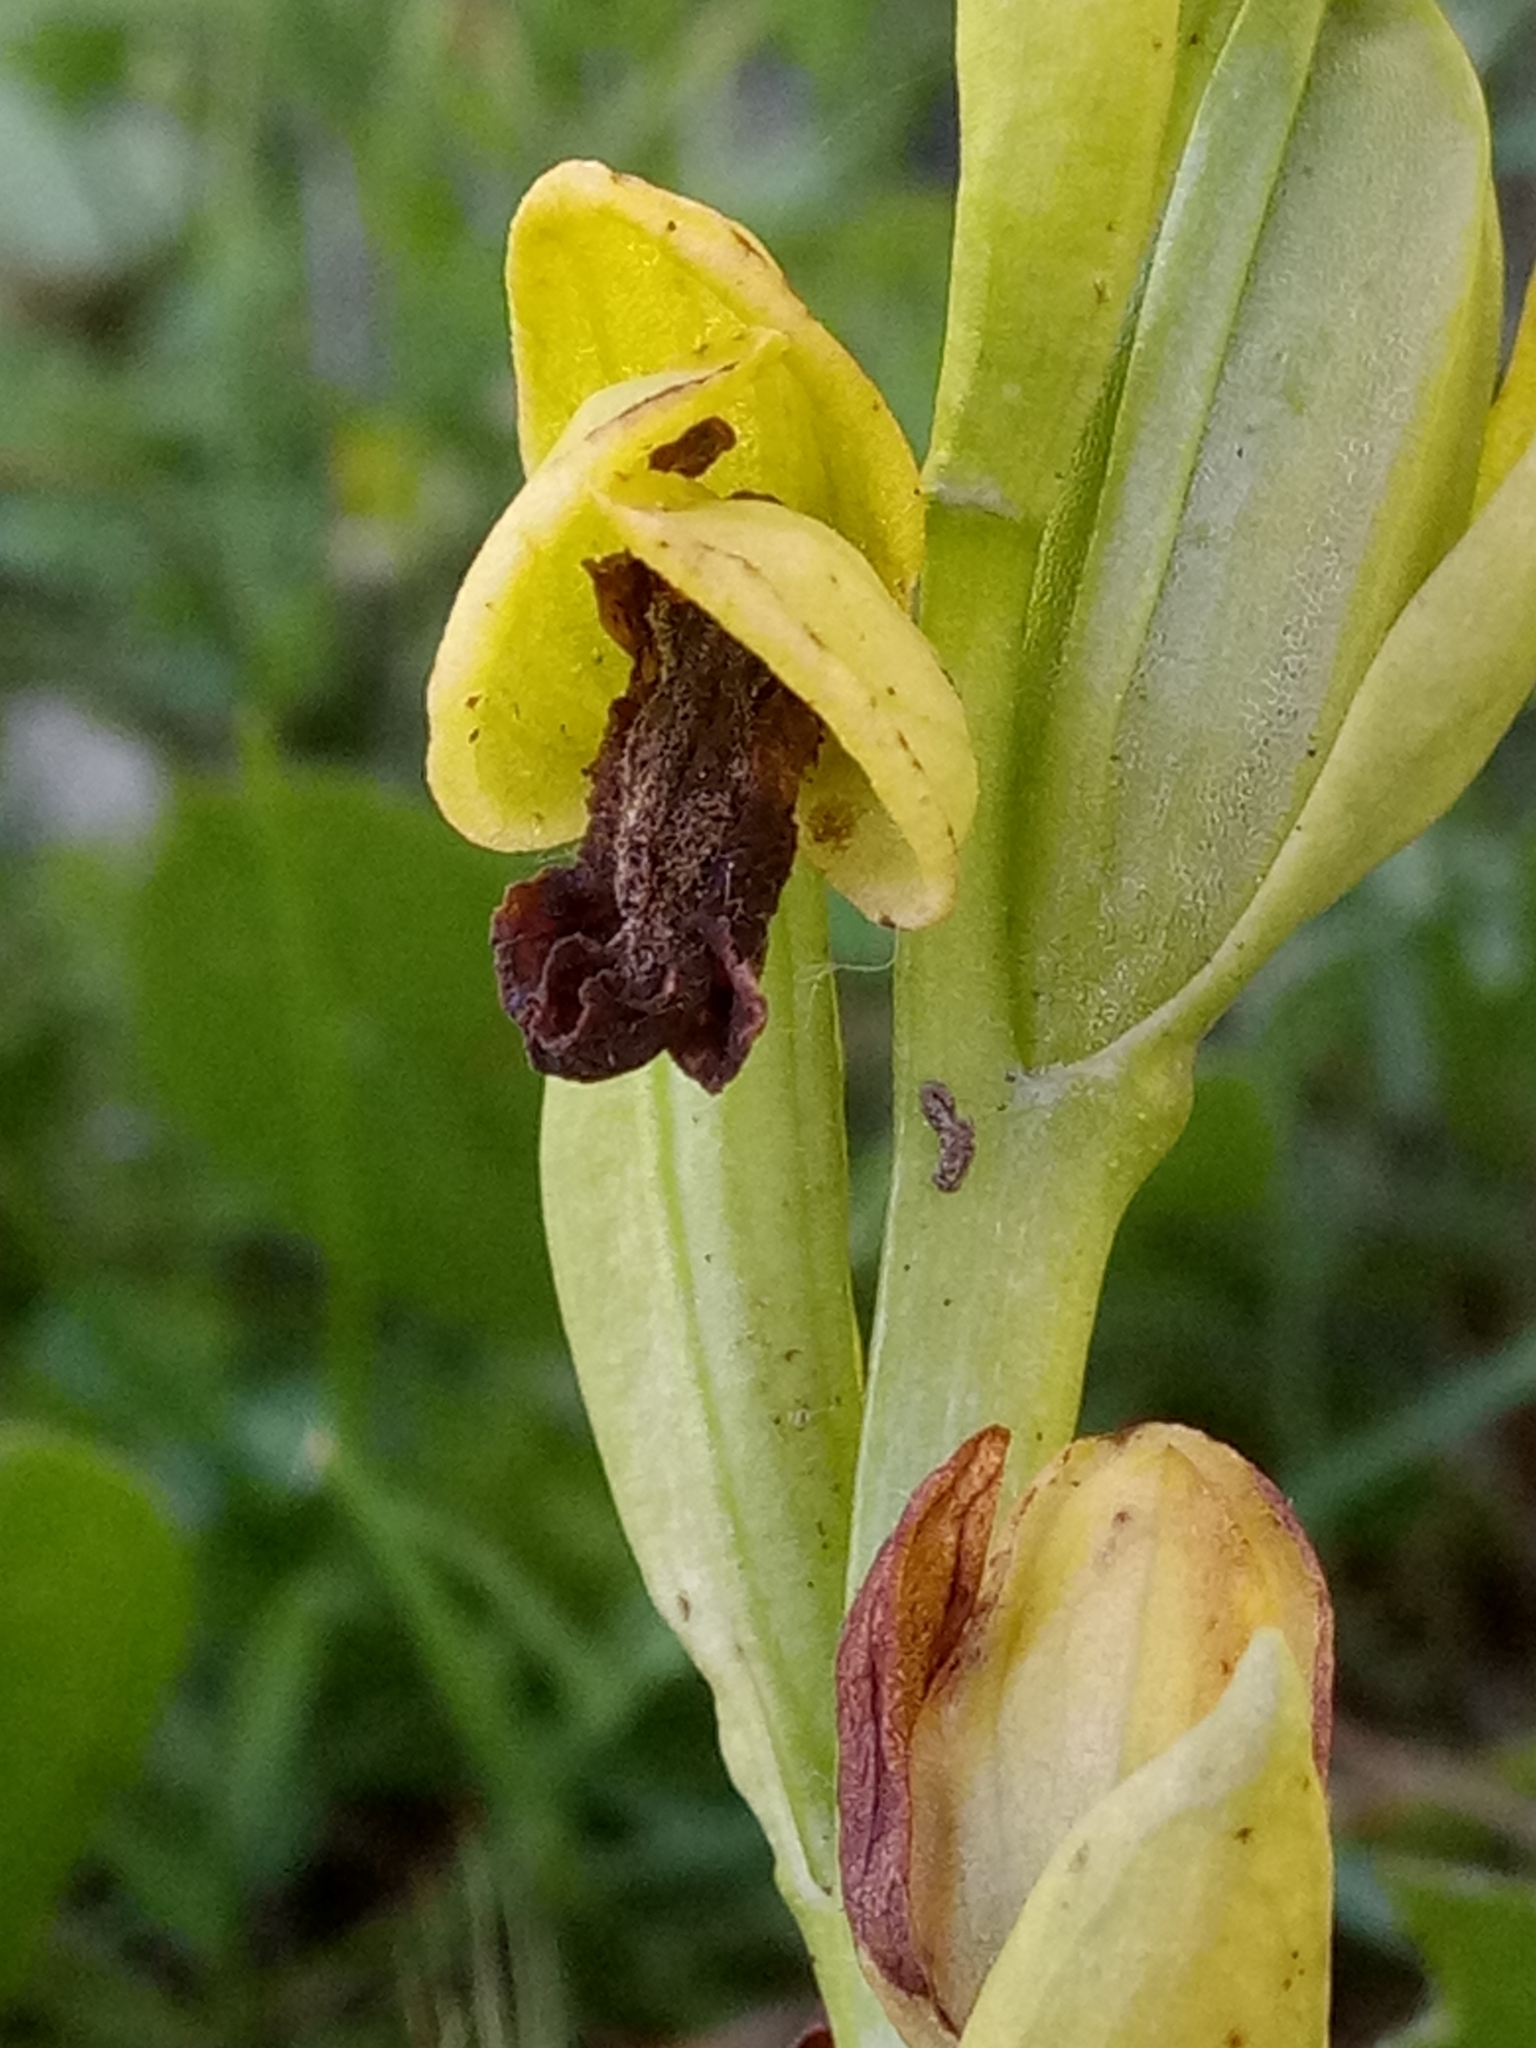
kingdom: Plantae
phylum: Tracheophyta
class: Liliopsida
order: Asparagales
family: Orchidaceae
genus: Ophrys
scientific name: Ophrys lutea
